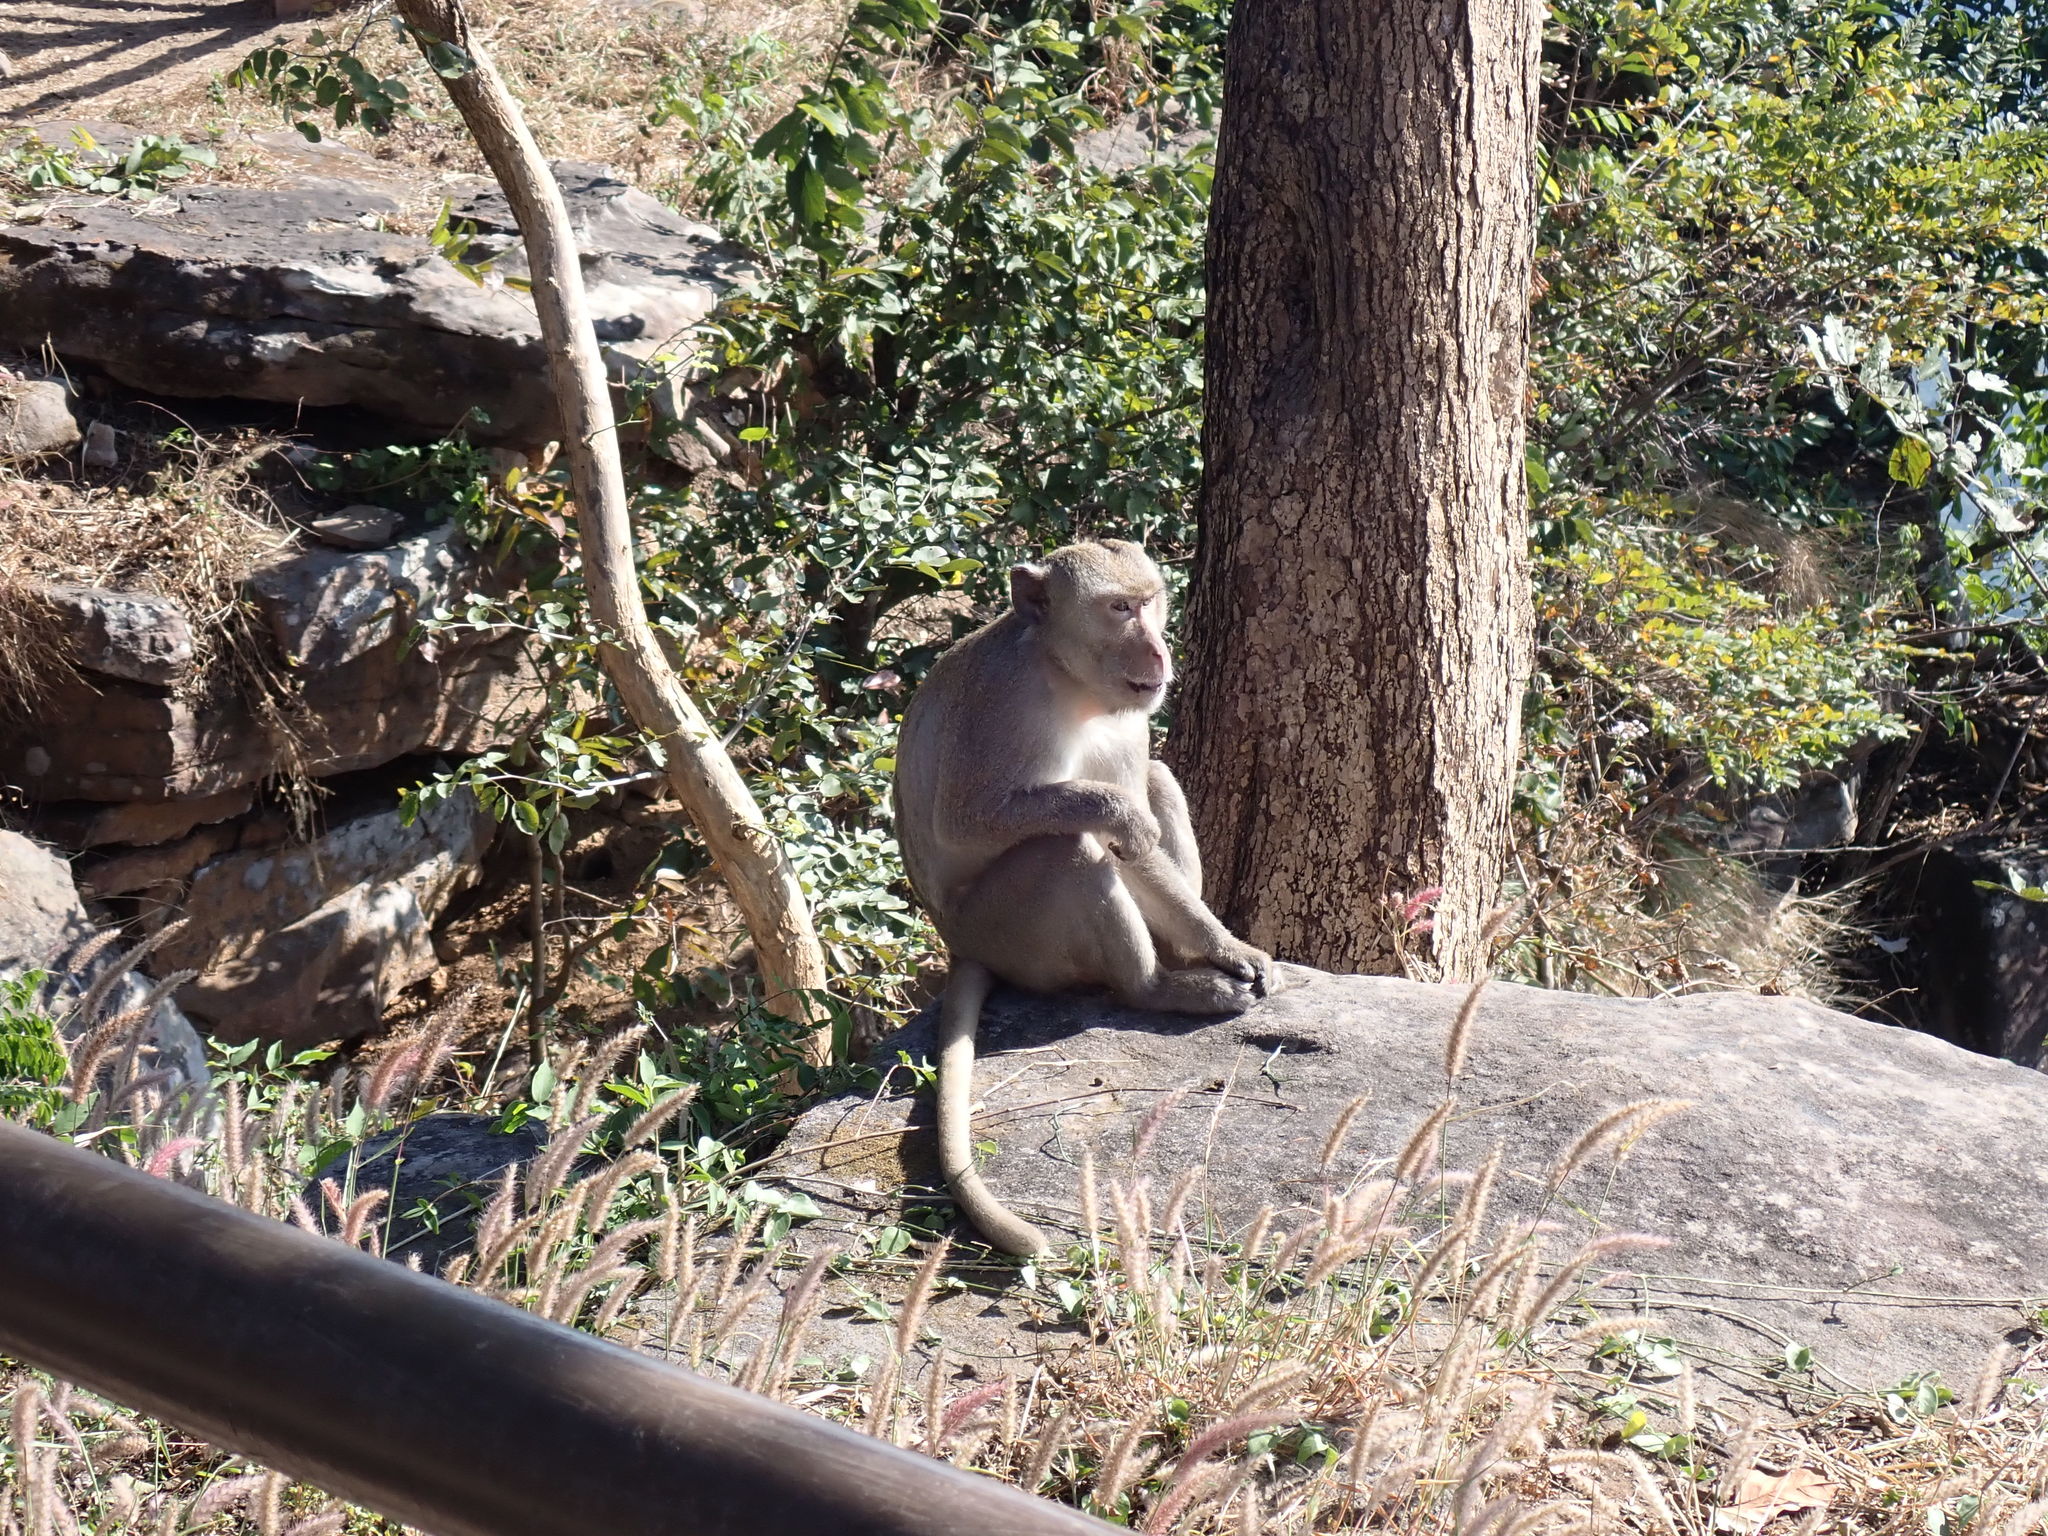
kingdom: Animalia
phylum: Chordata
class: Mammalia
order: Primates
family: Cercopithecidae
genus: Macaca
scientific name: Macaca fascicularis
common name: Crab-eating macaque
